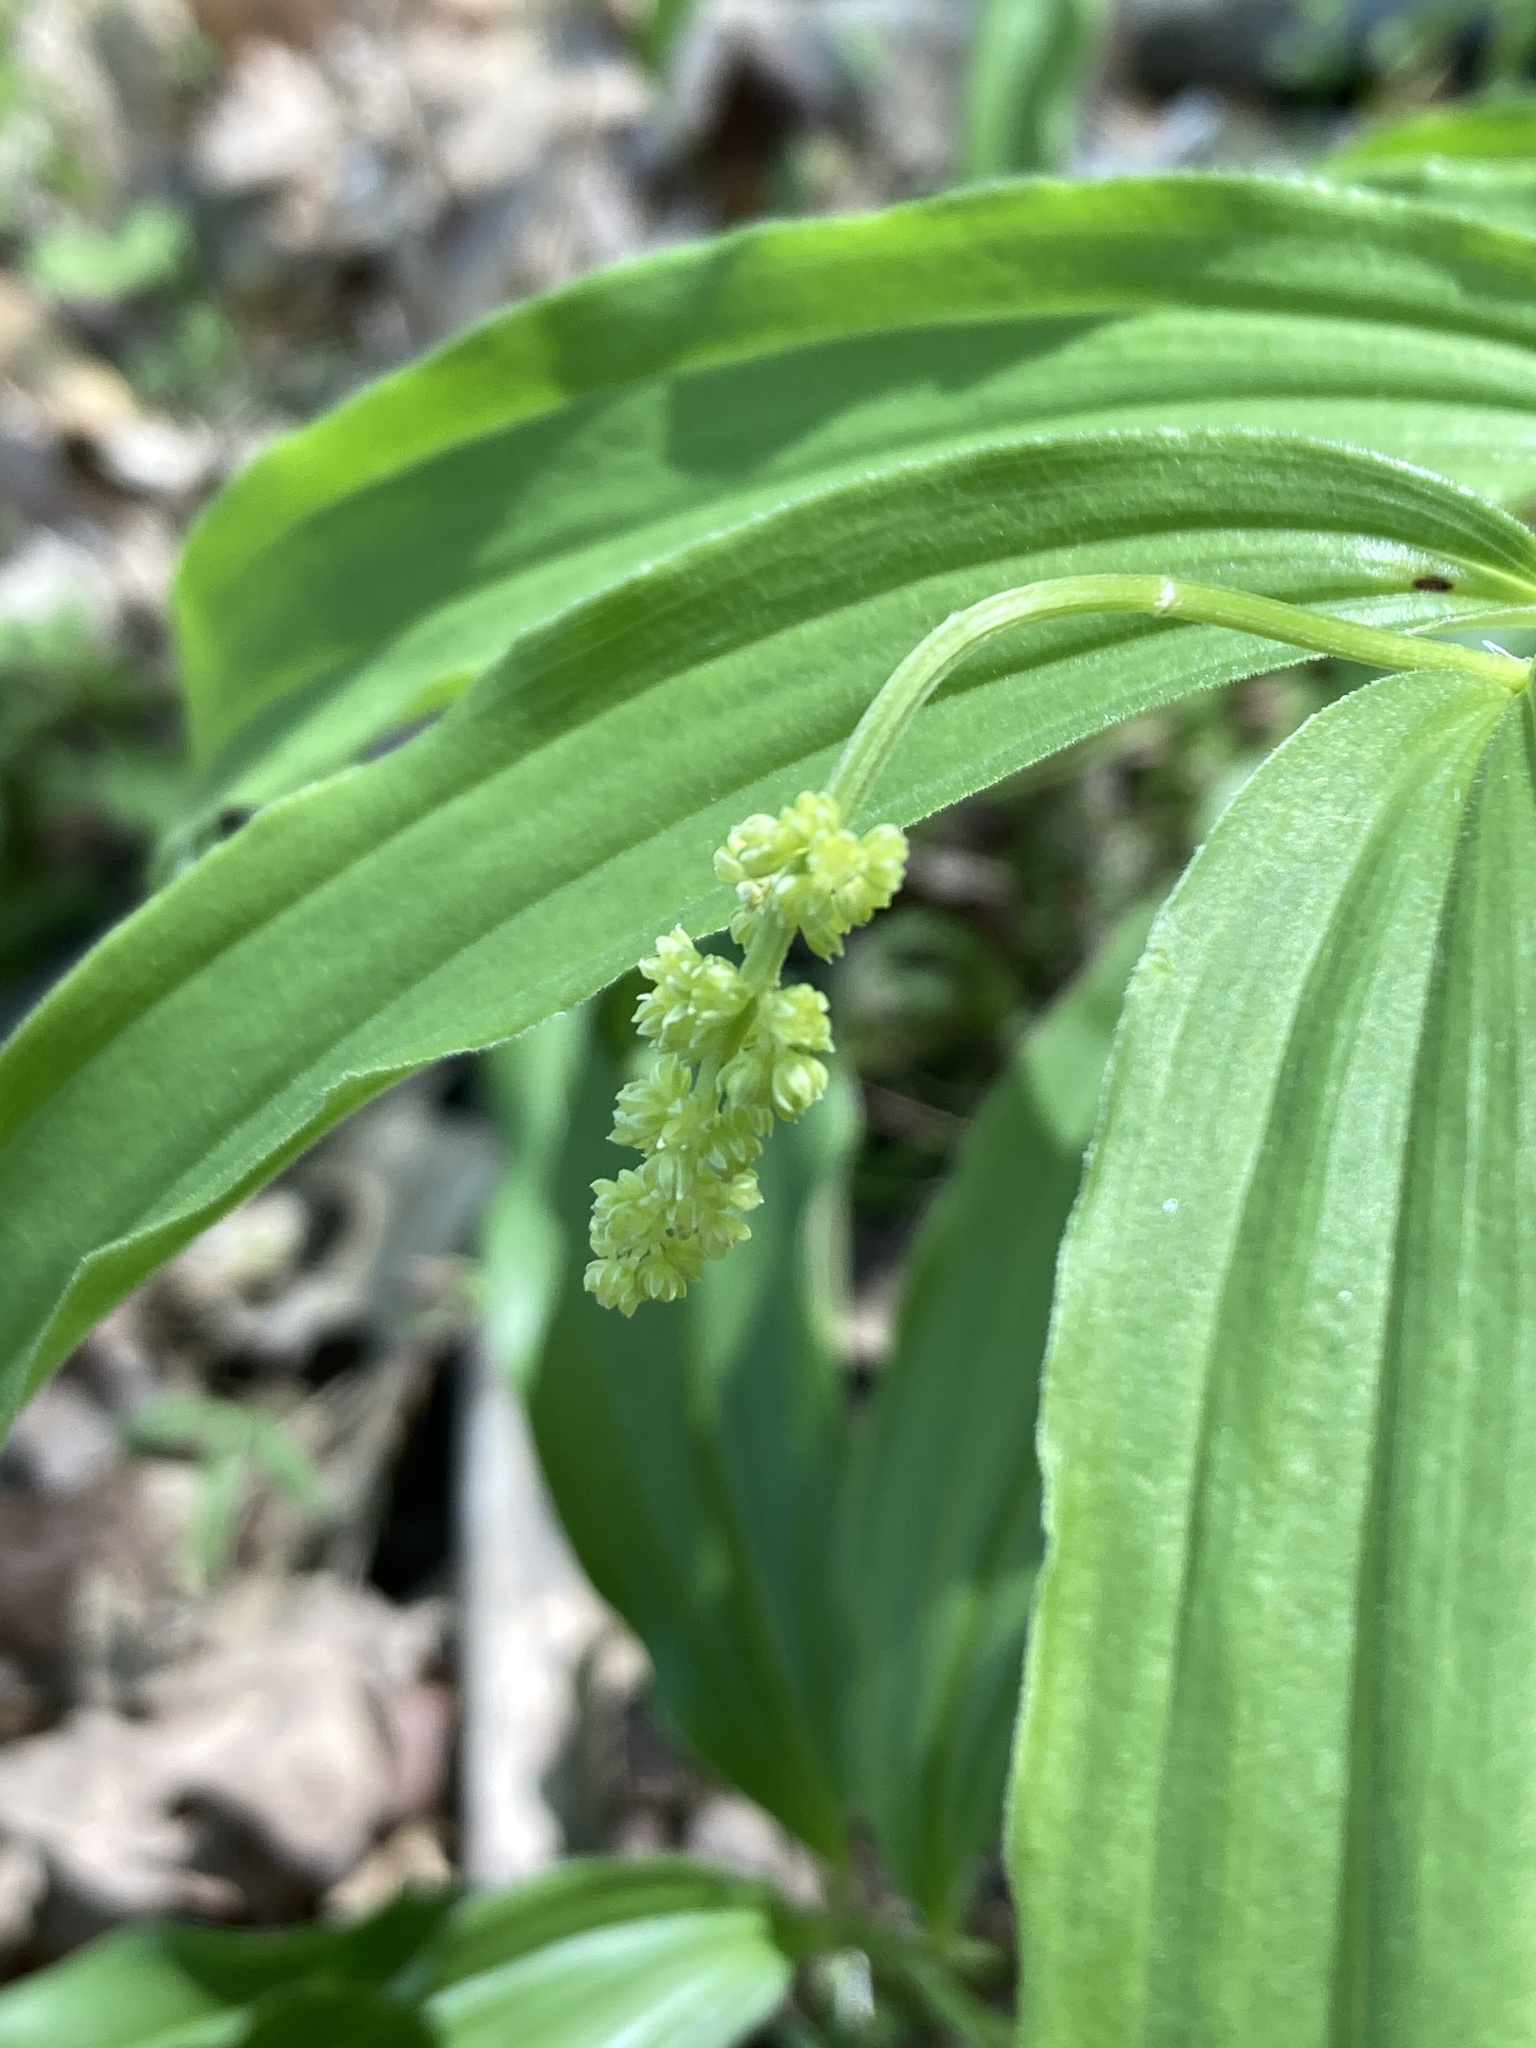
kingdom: Plantae
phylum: Tracheophyta
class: Liliopsida
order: Asparagales
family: Asparagaceae
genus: Maianthemum
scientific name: Maianthemum racemosum
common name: False spikenard
